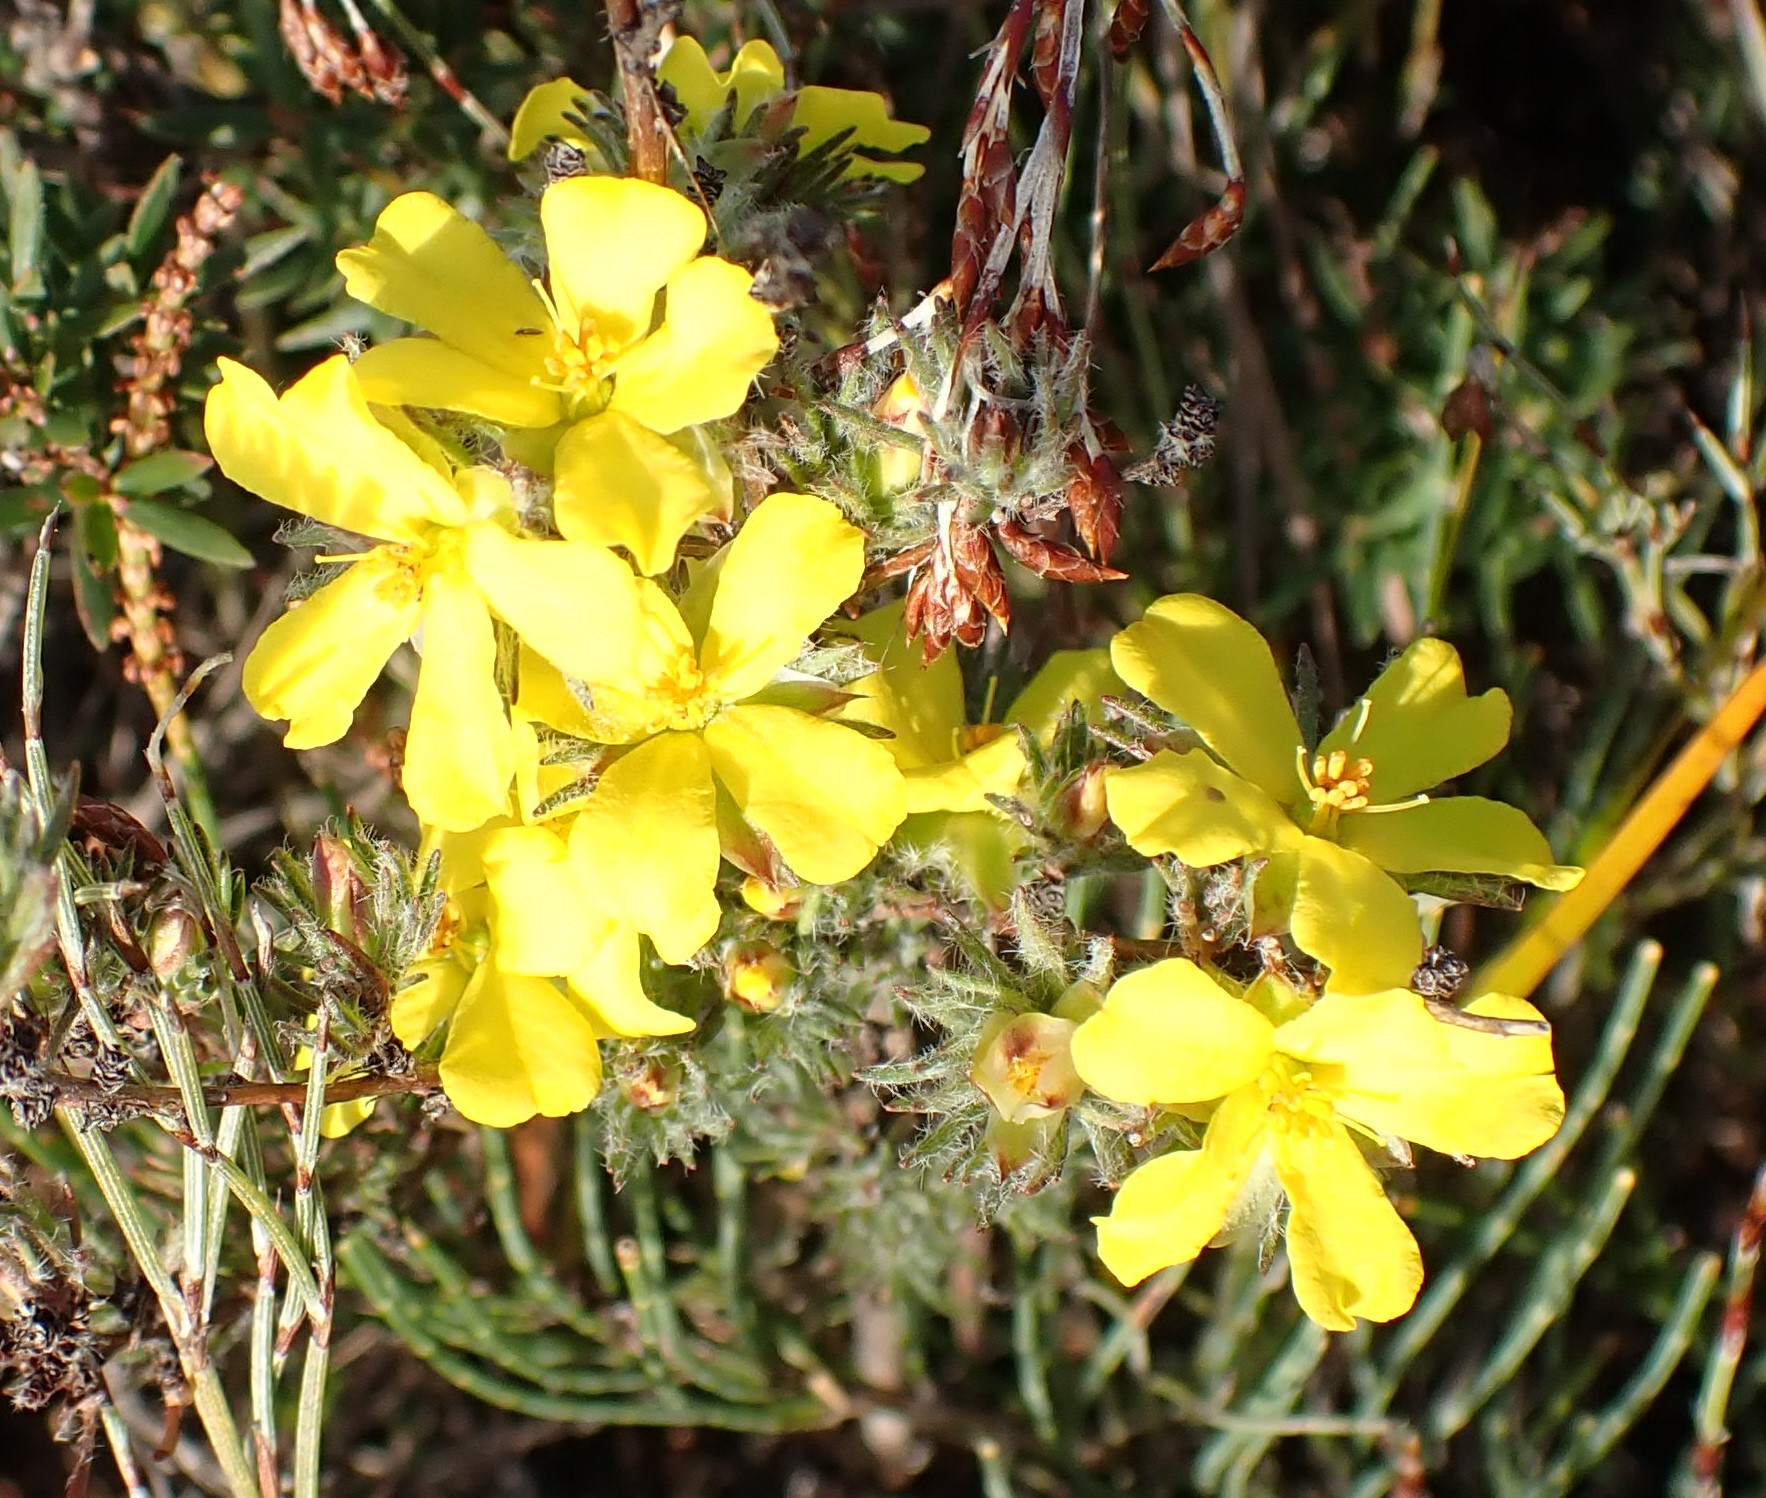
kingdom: Plantae
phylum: Tracheophyta
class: Magnoliopsida
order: Dilleniales
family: Dilleniaceae
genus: Hibbertia
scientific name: Hibbertia prostrata
